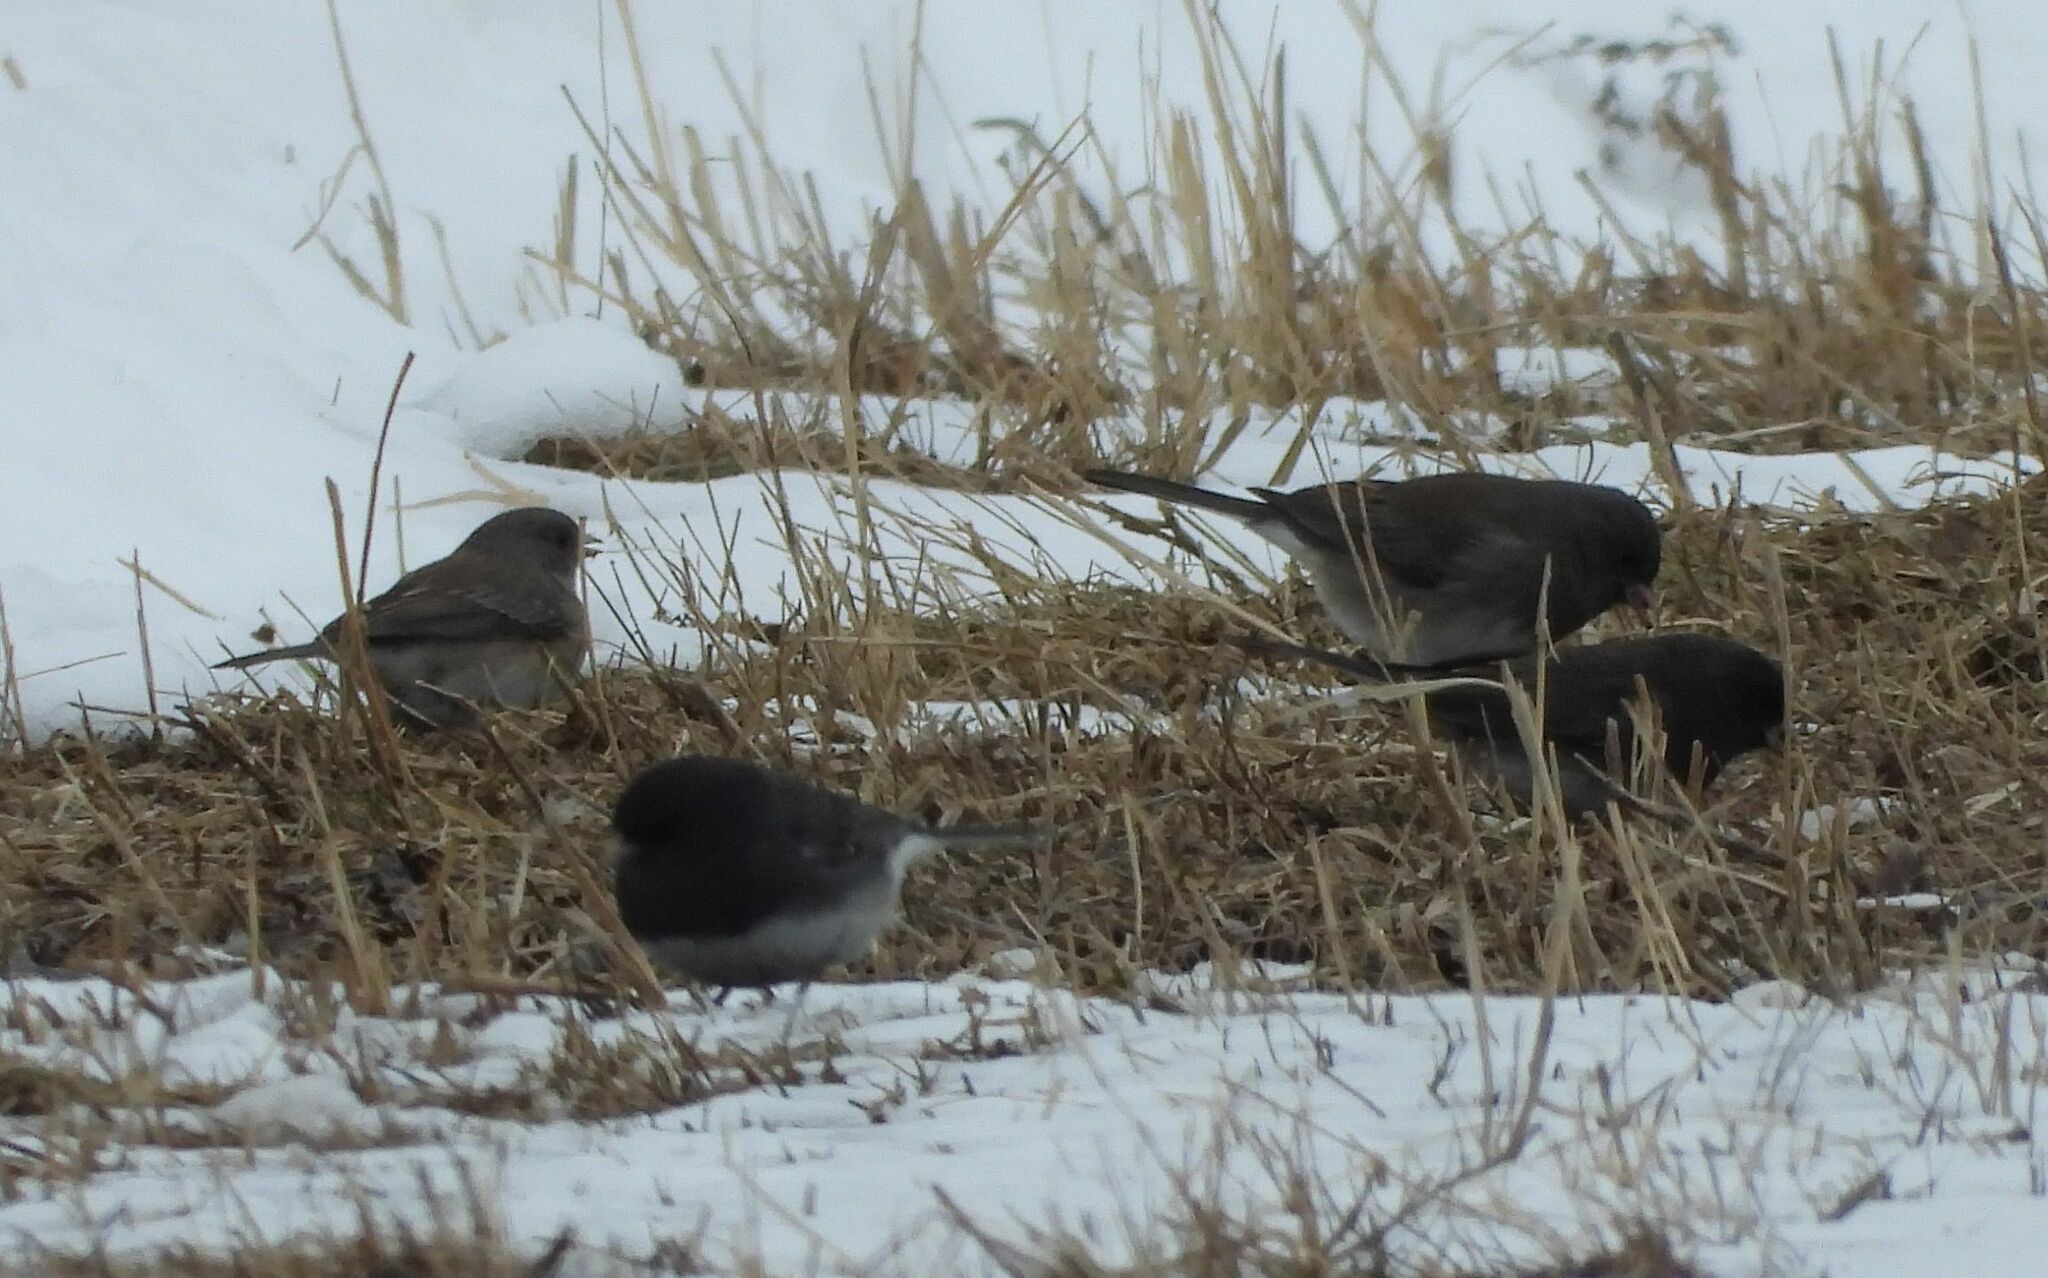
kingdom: Animalia
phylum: Chordata
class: Aves
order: Passeriformes
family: Passerellidae
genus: Junco
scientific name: Junco hyemalis
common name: Dark-eyed junco
